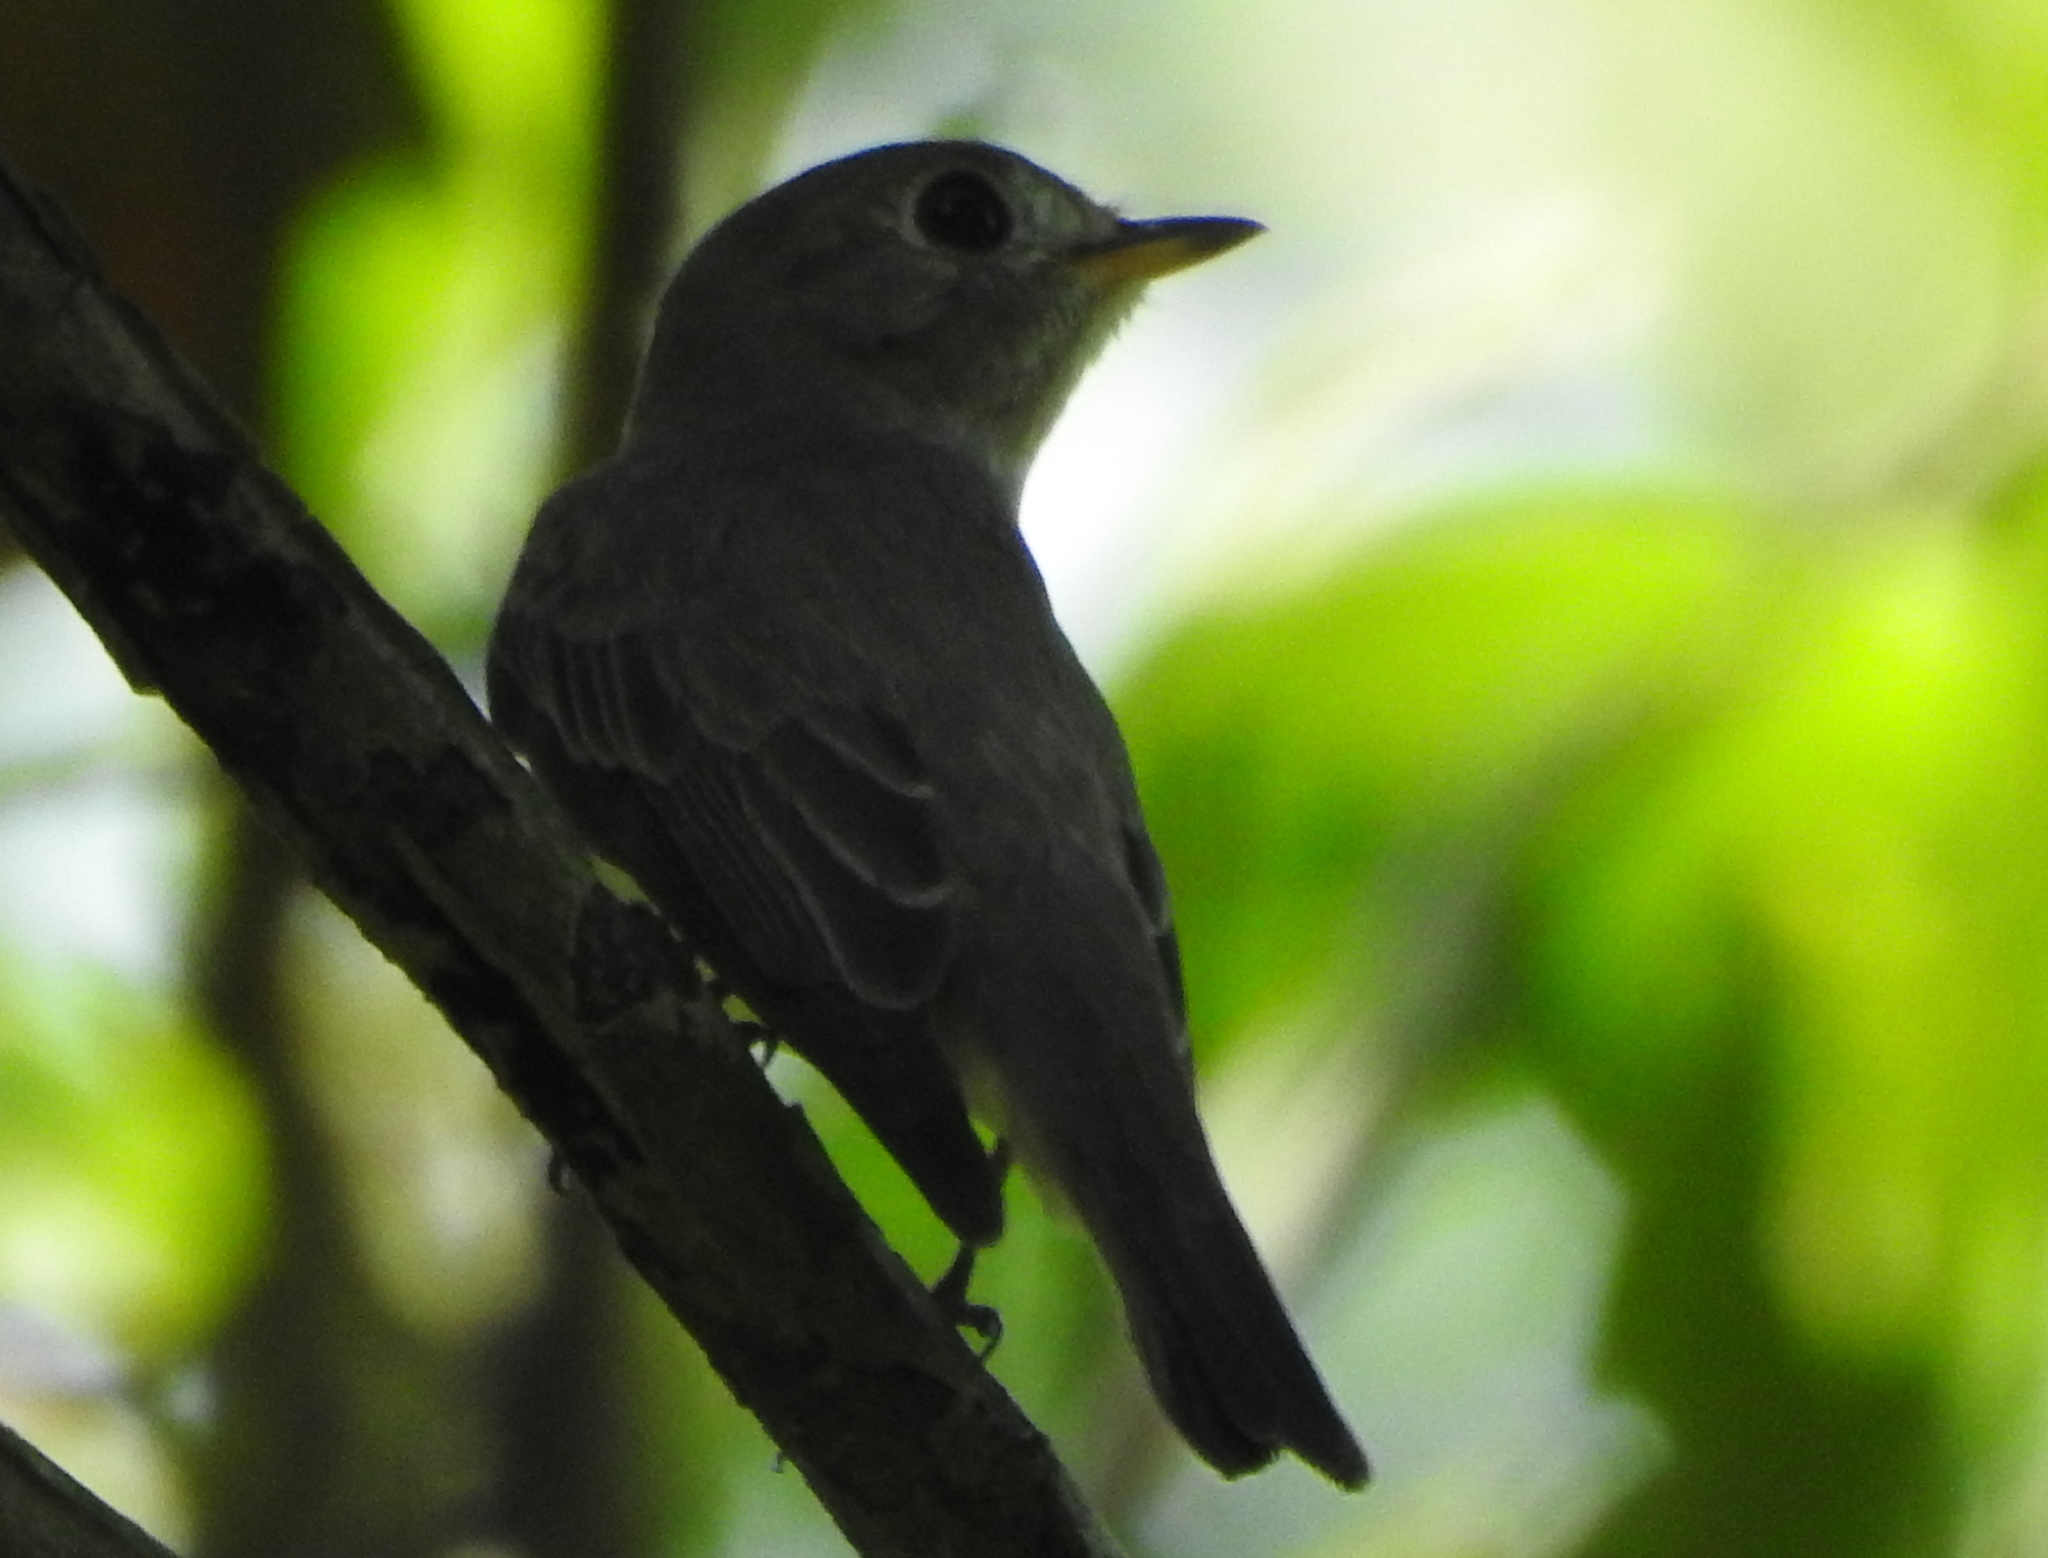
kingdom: Animalia
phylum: Chordata
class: Aves
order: Passeriformes
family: Muscicapidae
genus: Muscicapa
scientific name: Muscicapa latirostris
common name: Asian brown flycatcher
